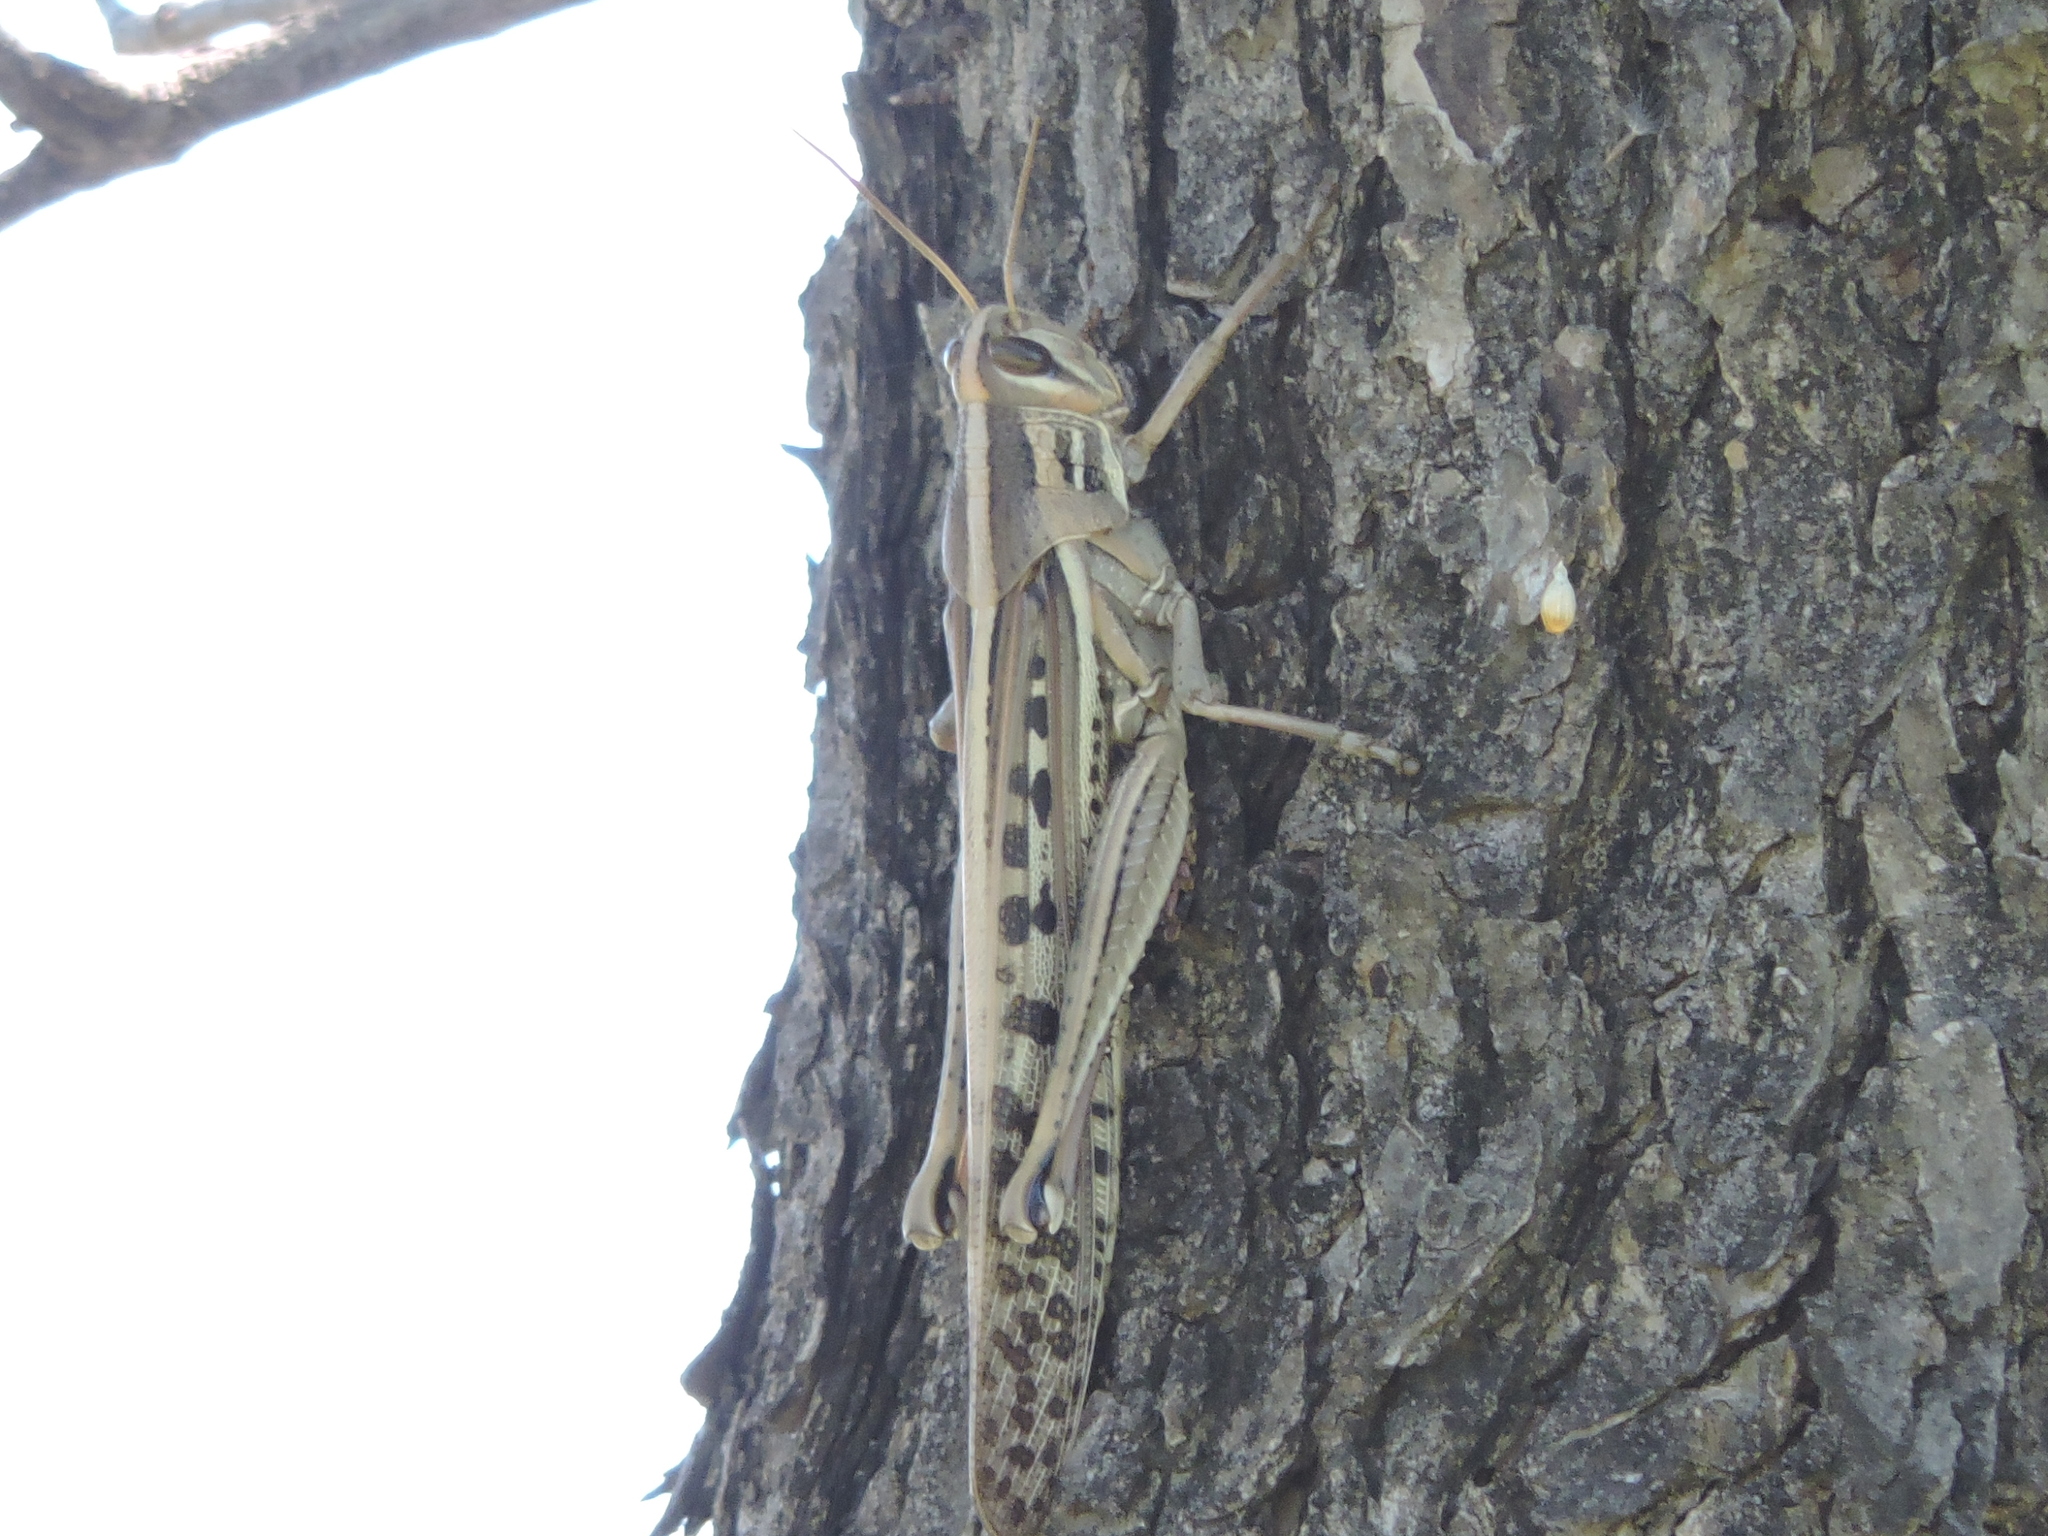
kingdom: Animalia
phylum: Arthropoda
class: Insecta
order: Orthoptera
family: Acrididae
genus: Schistocerca
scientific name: Schistocerca americana
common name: American bird locust
